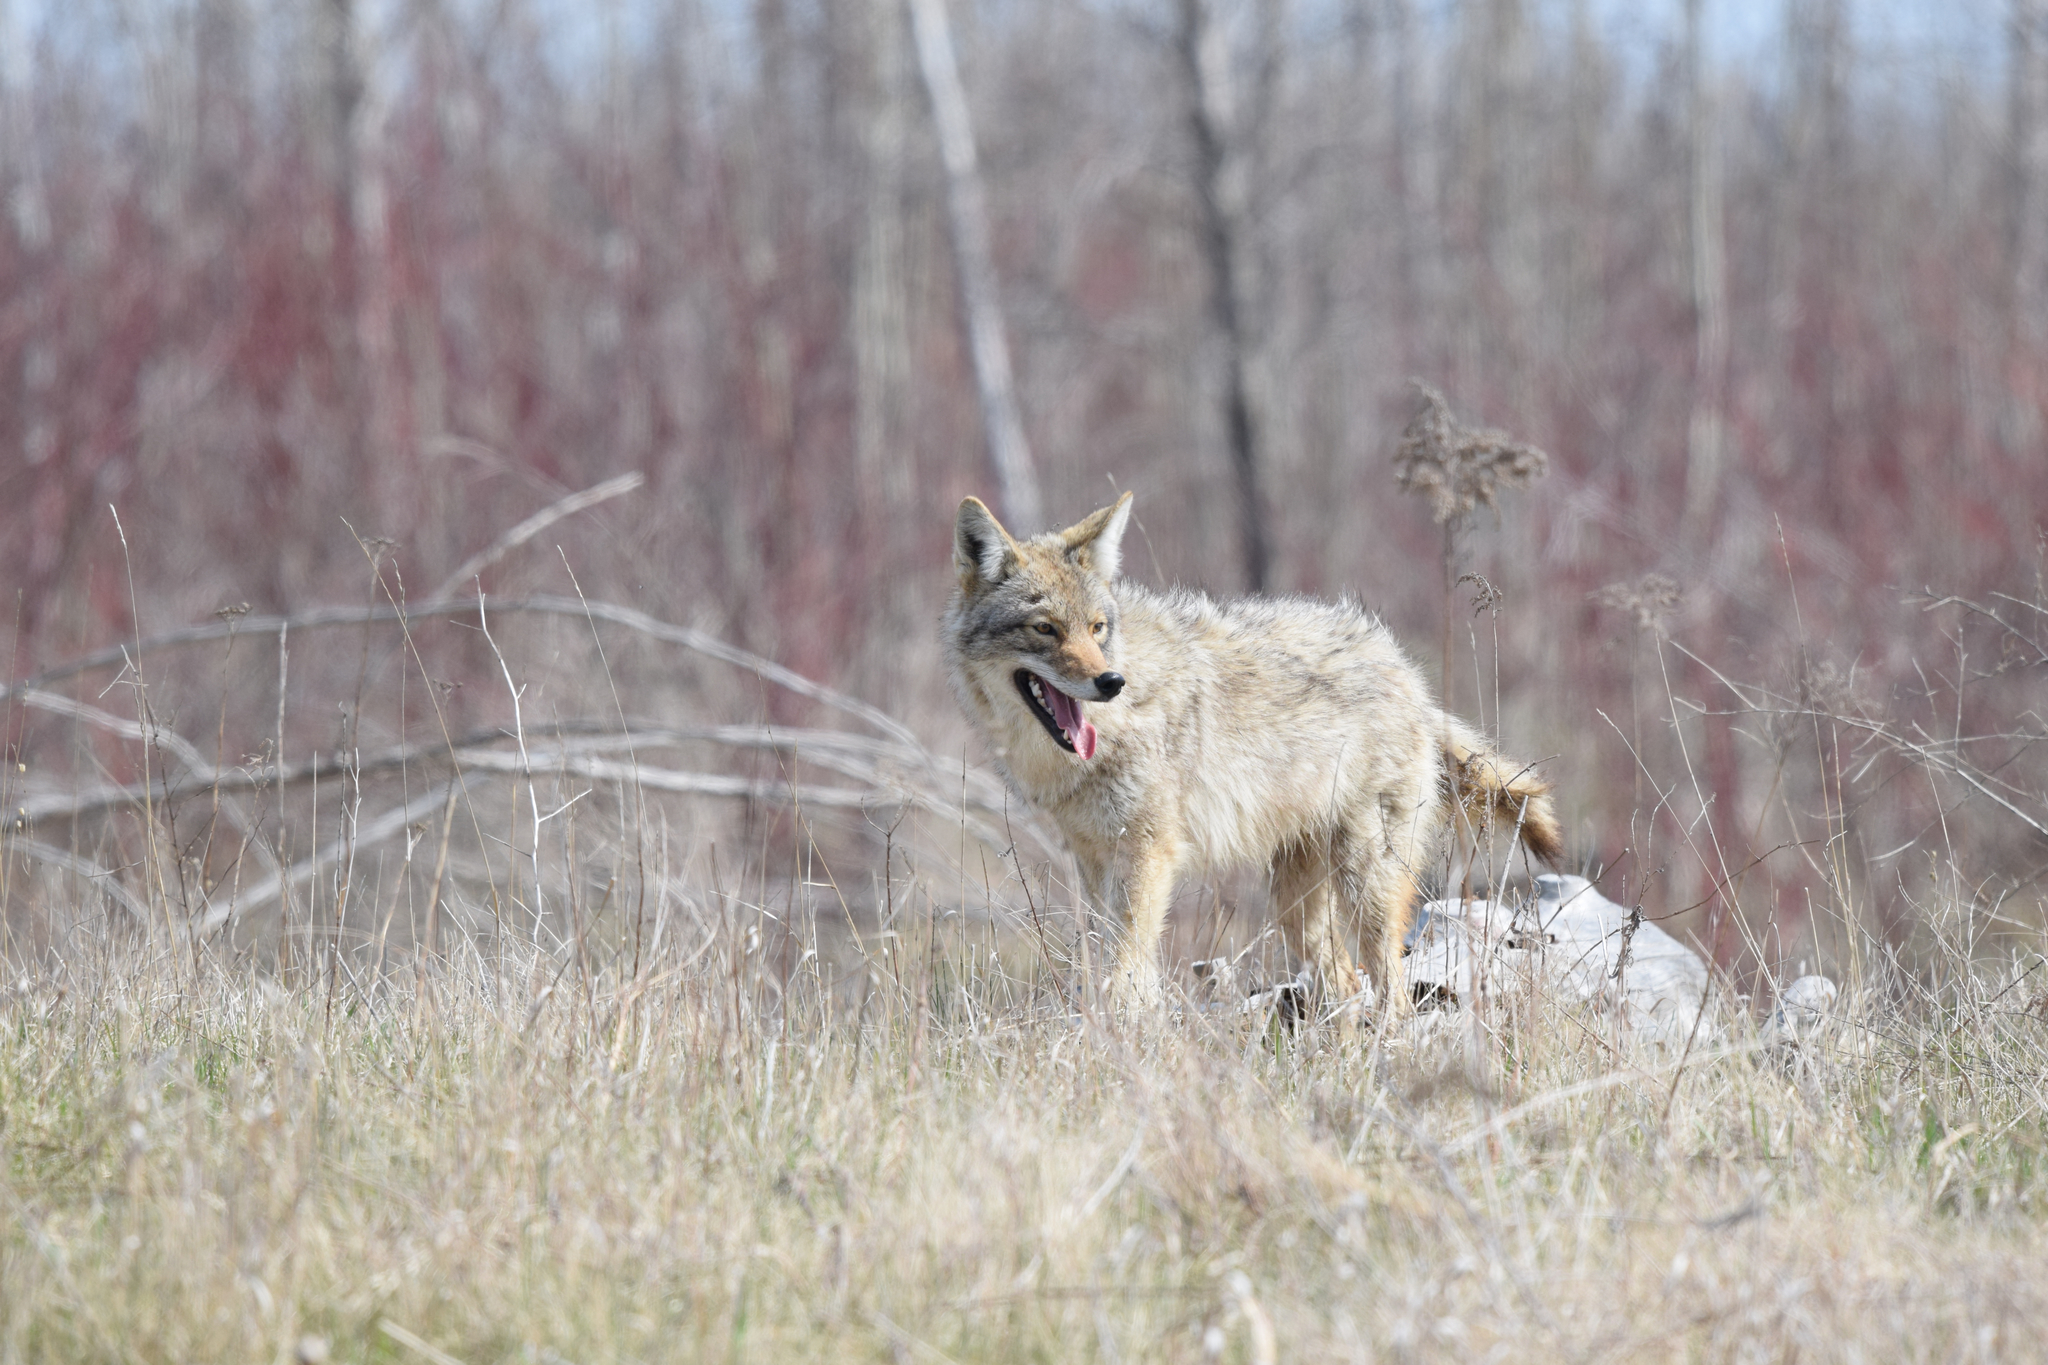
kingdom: Animalia
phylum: Chordata
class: Mammalia
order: Carnivora
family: Canidae
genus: Canis
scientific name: Canis latrans
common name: Coyote
